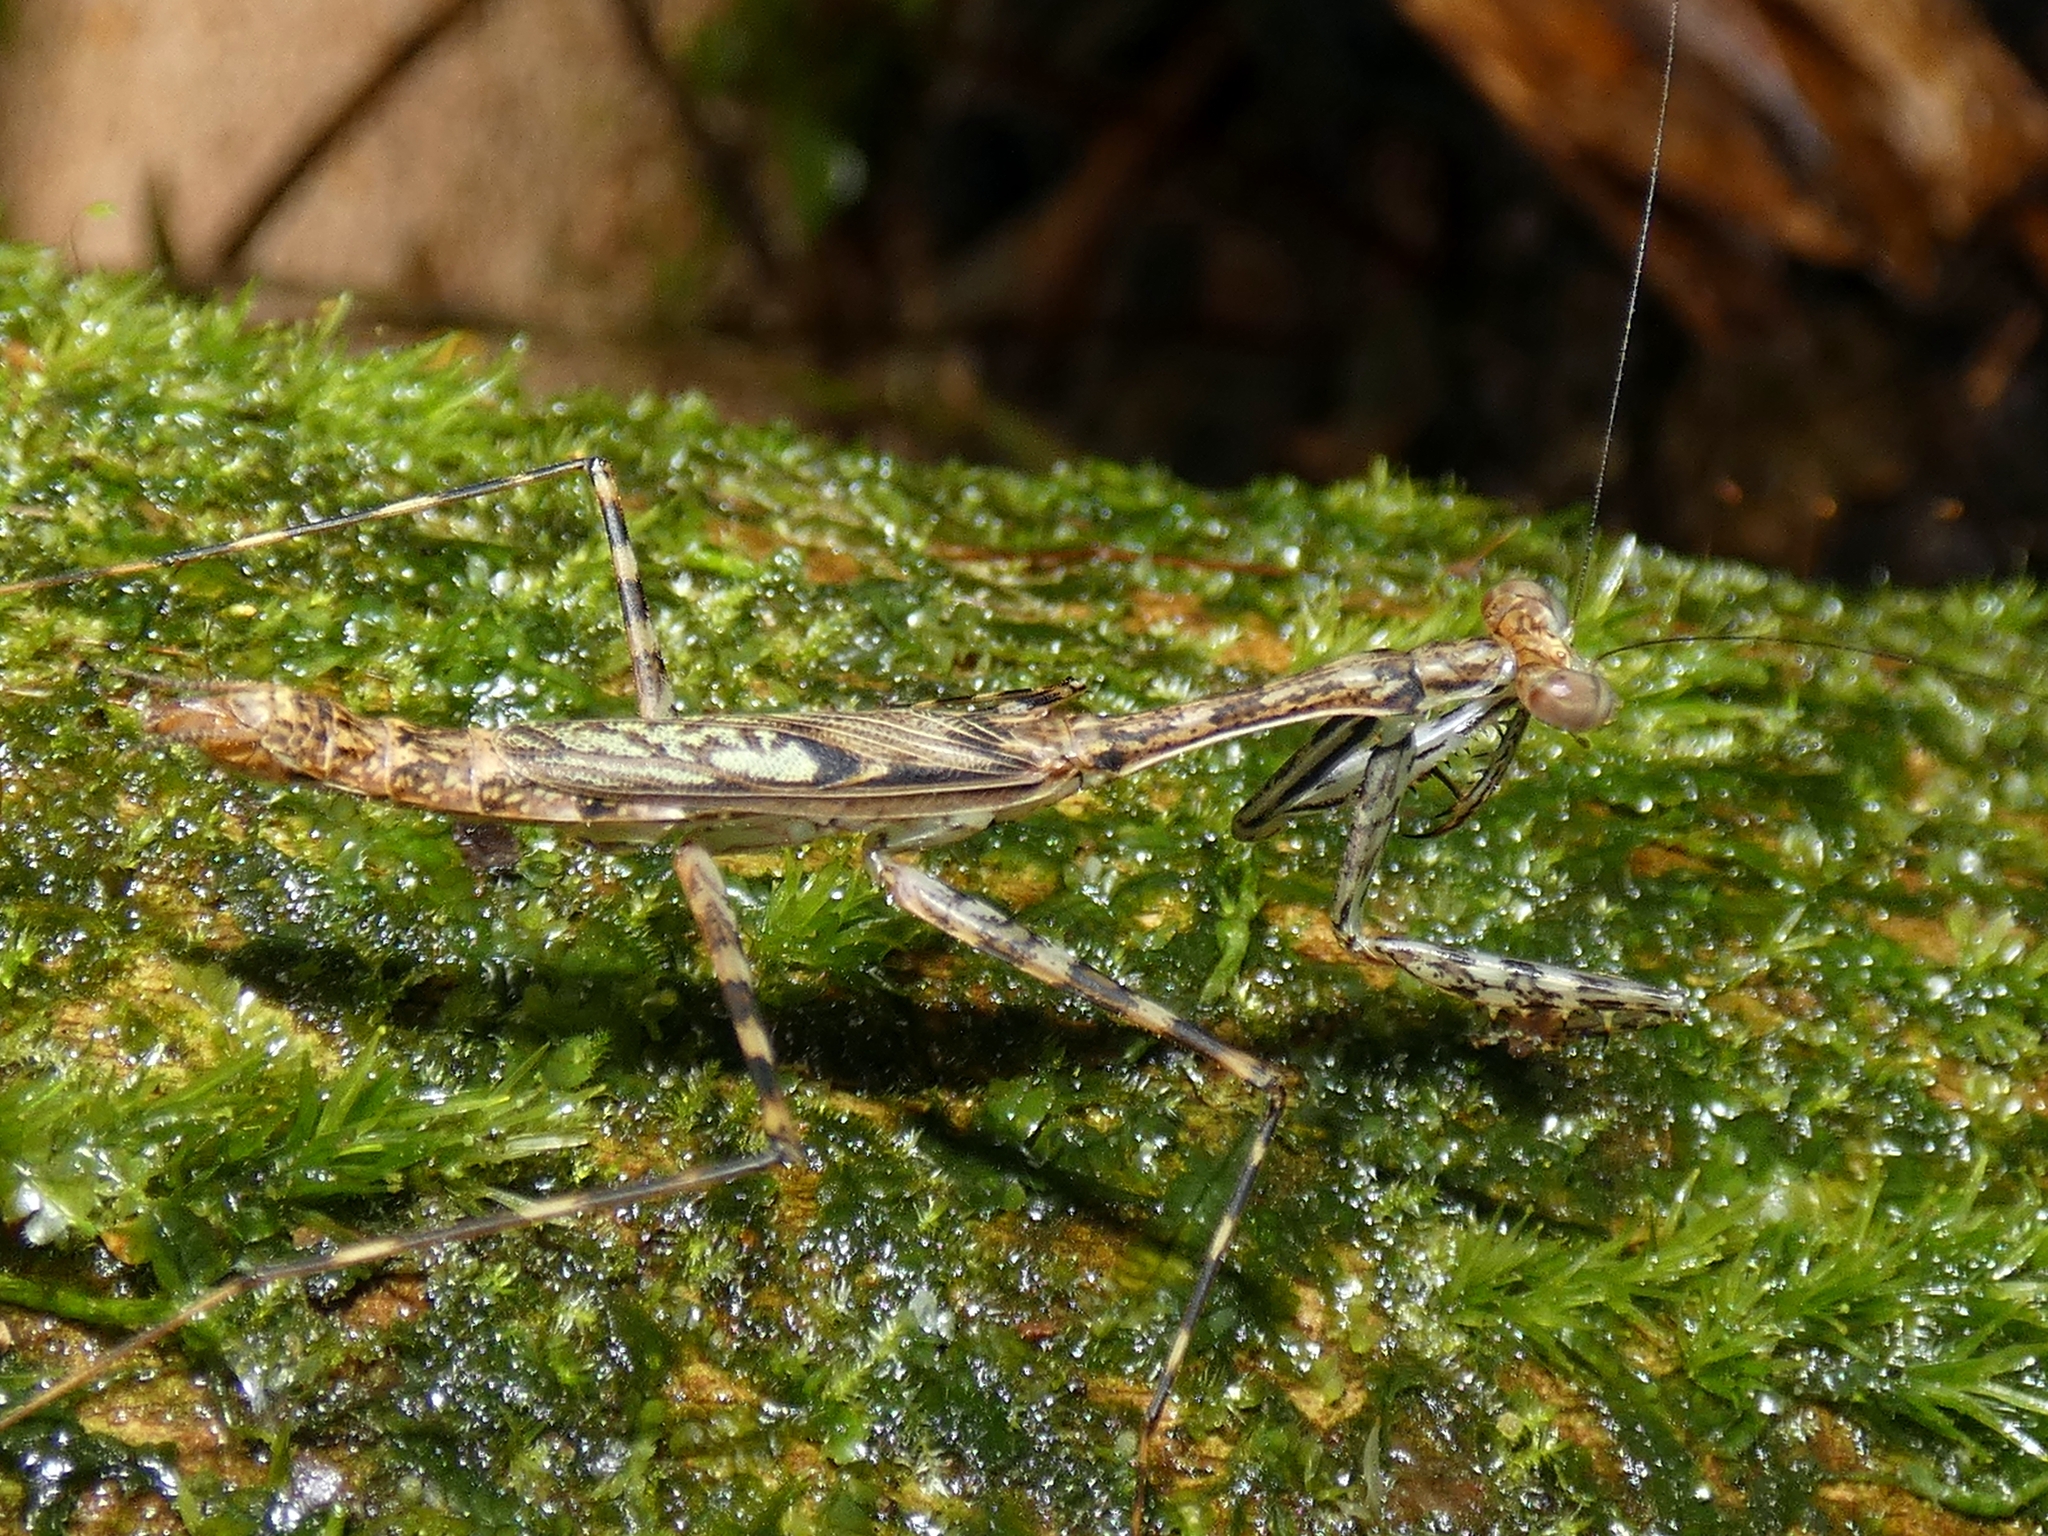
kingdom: Animalia
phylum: Arthropoda
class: Insecta
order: Mantodea
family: Nanomantidae
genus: Ciulfina
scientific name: Ciulfina rentzi
